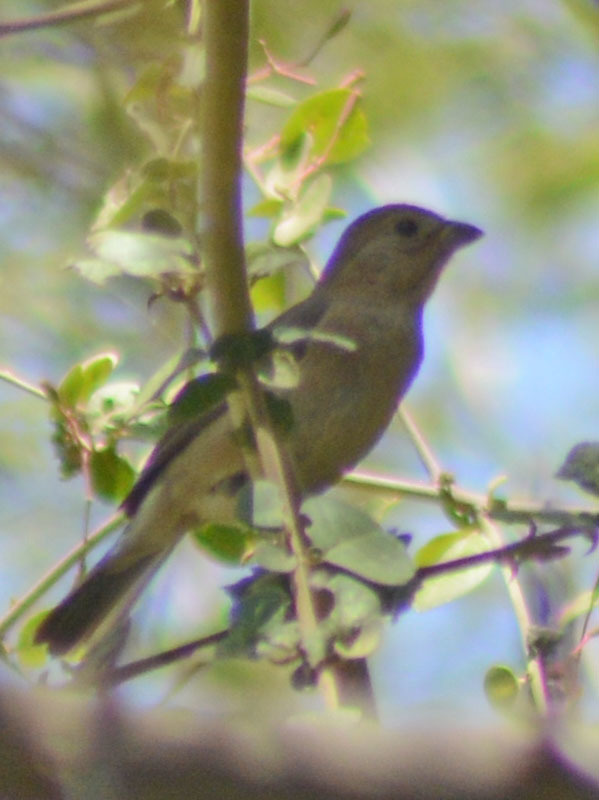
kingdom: Animalia
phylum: Chordata
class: Aves
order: Passeriformes
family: Cardinalidae
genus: Passerina
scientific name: Passerina versicolor
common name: Varied bunting
